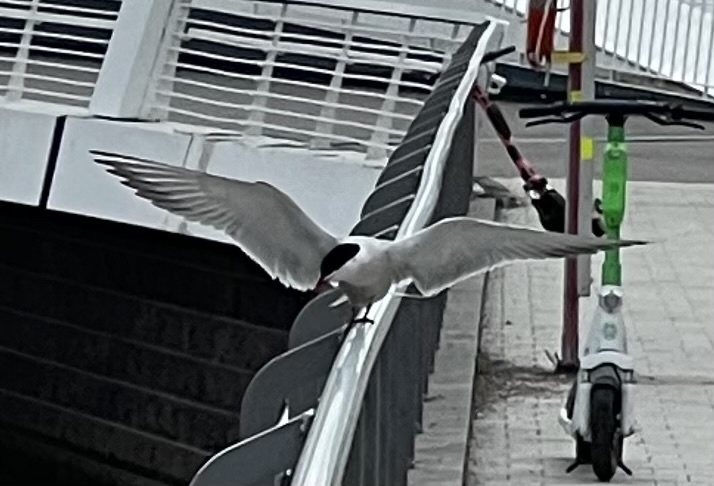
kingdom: Animalia
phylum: Chordata
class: Aves
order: Charadriiformes
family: Laridae
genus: Sterna
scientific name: Sterna hirundo
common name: Common tern
